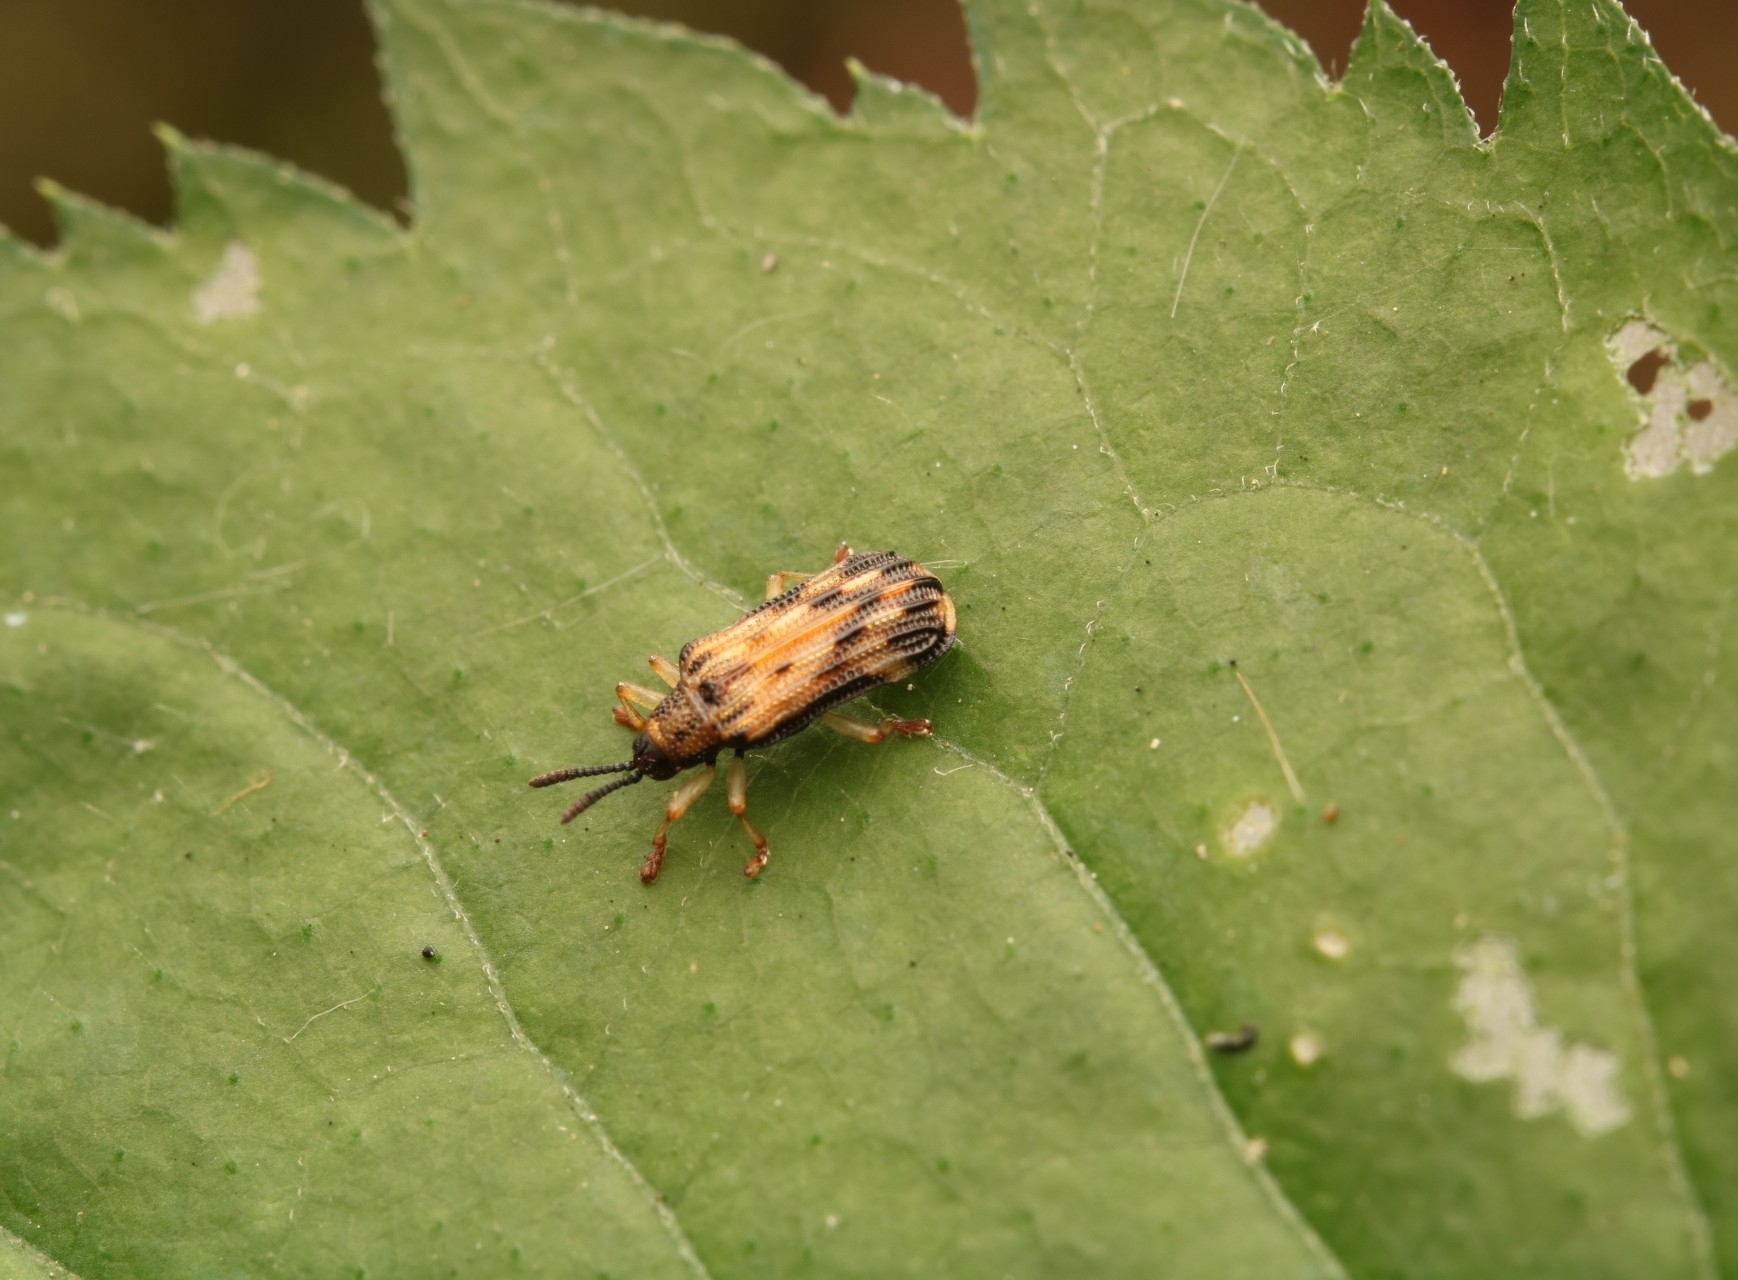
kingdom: Animalia
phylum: Arthropoda
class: Insecta
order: Coleoptera
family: Chrysomelidae
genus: Sumitrosis
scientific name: Sumitrosis inaequalis
